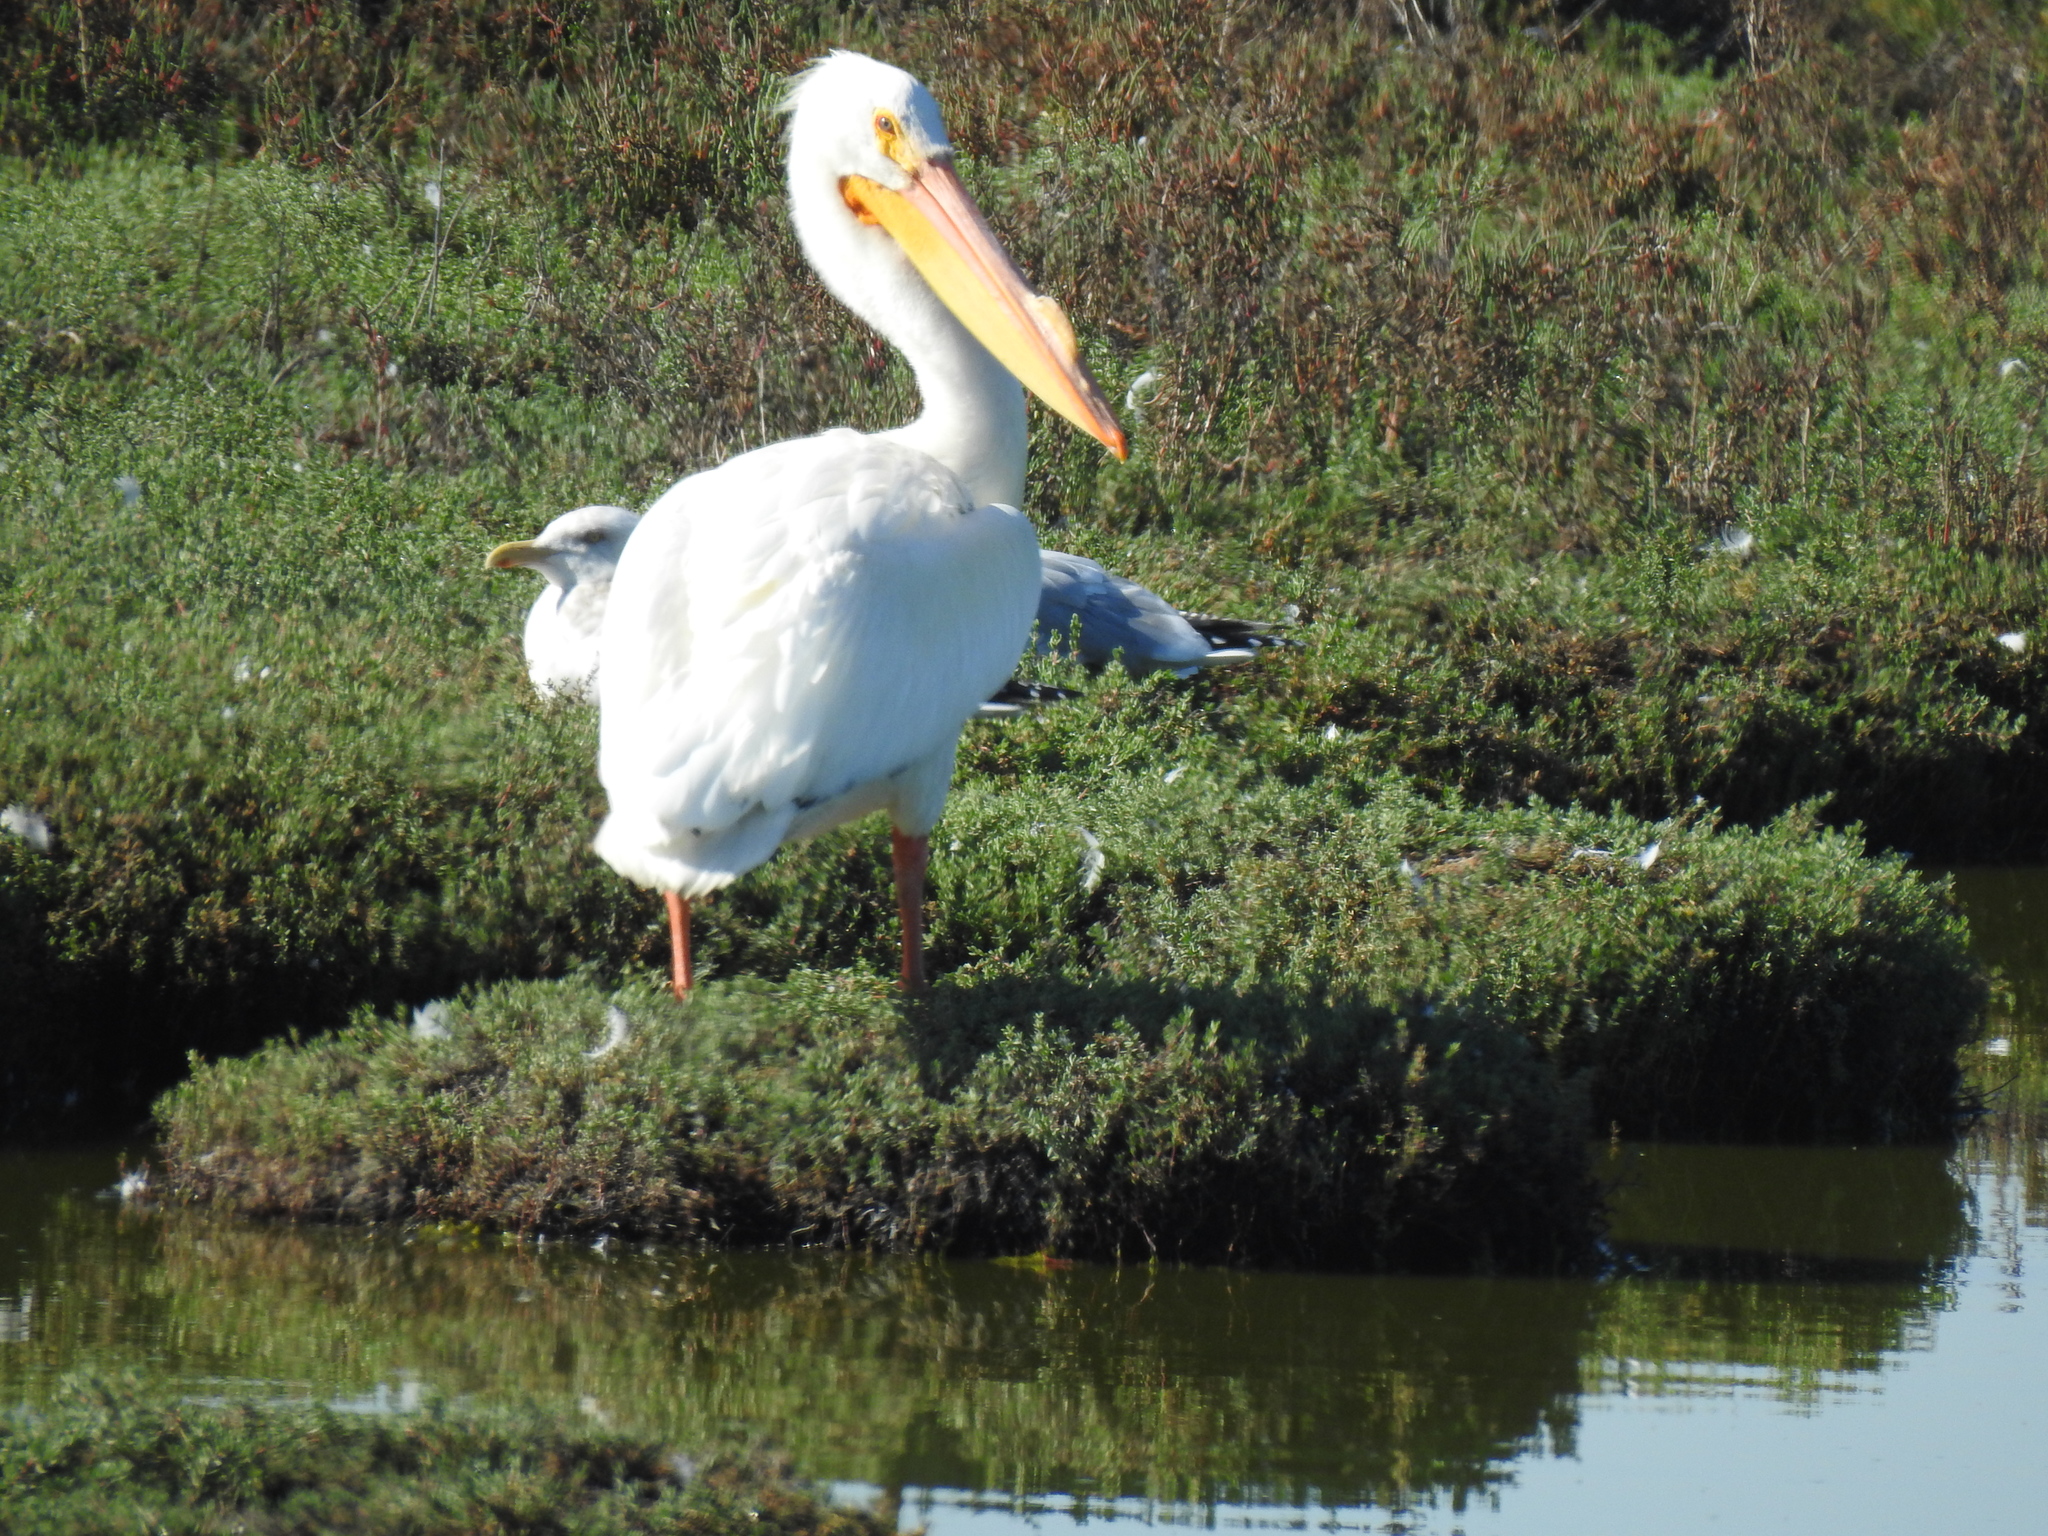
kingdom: Animalia
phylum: Chordata
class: Aves
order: Pelecaniformes
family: Pelecanidae
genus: Pelecanus
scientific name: Pelecanus erythrorhynchos
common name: American white pelican
